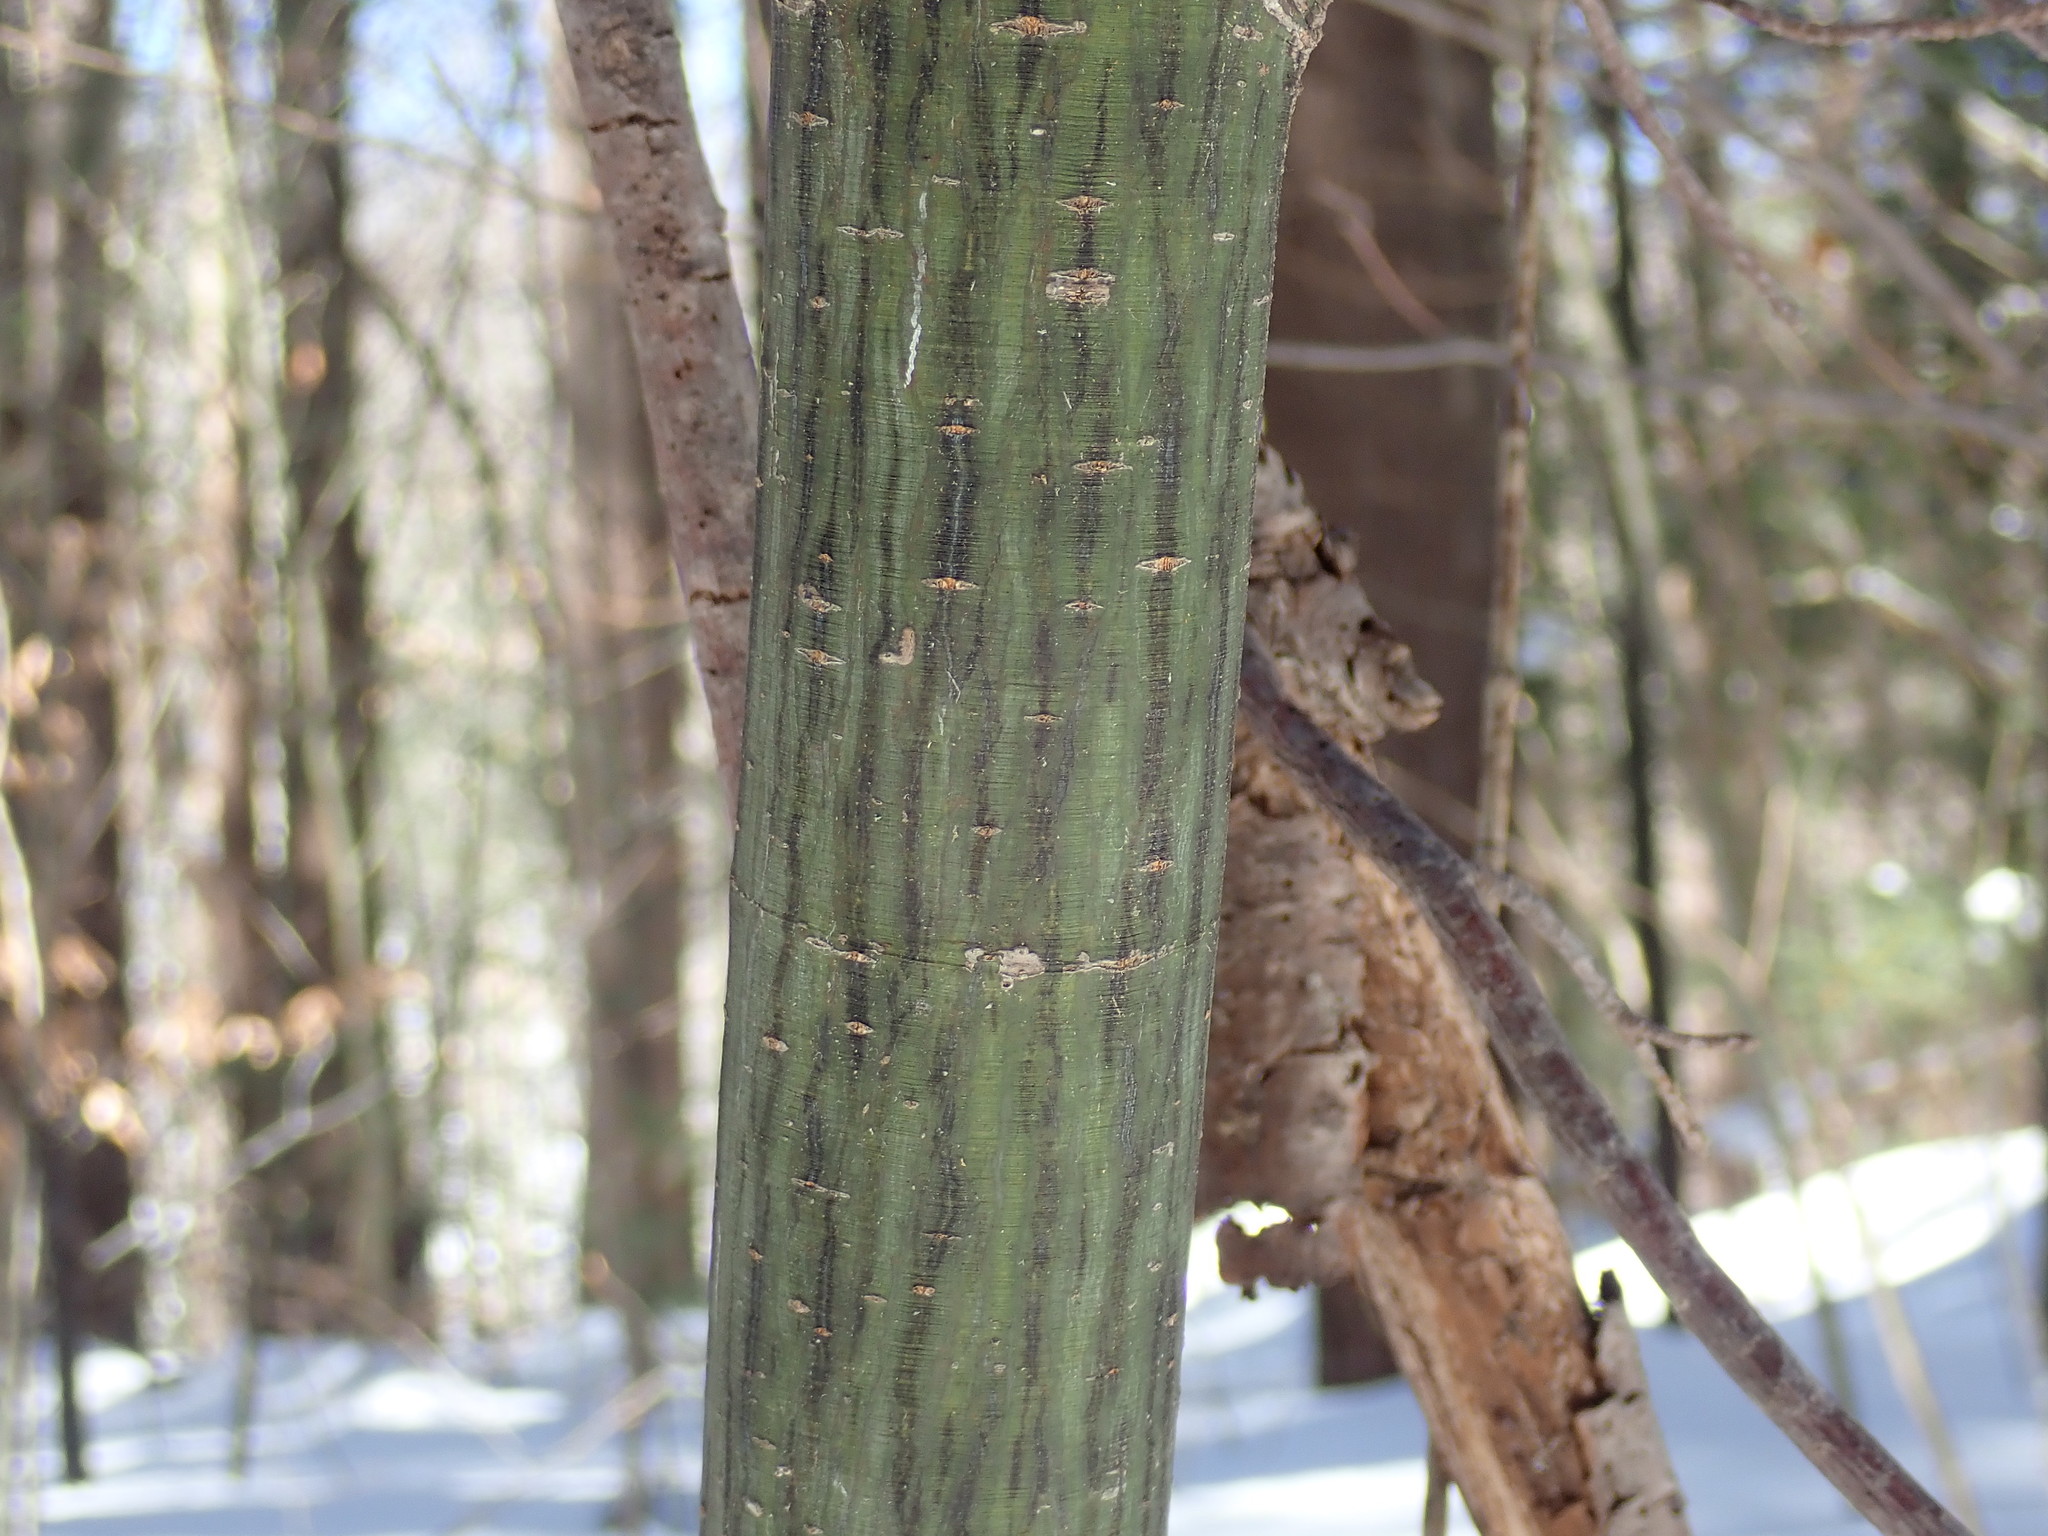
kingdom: Plantae
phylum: Tracheophyta
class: Magnoliopsida
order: Sapindales
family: Sapindaceae
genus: Acer
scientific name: Acer pensylvanicum
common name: Moosewood
